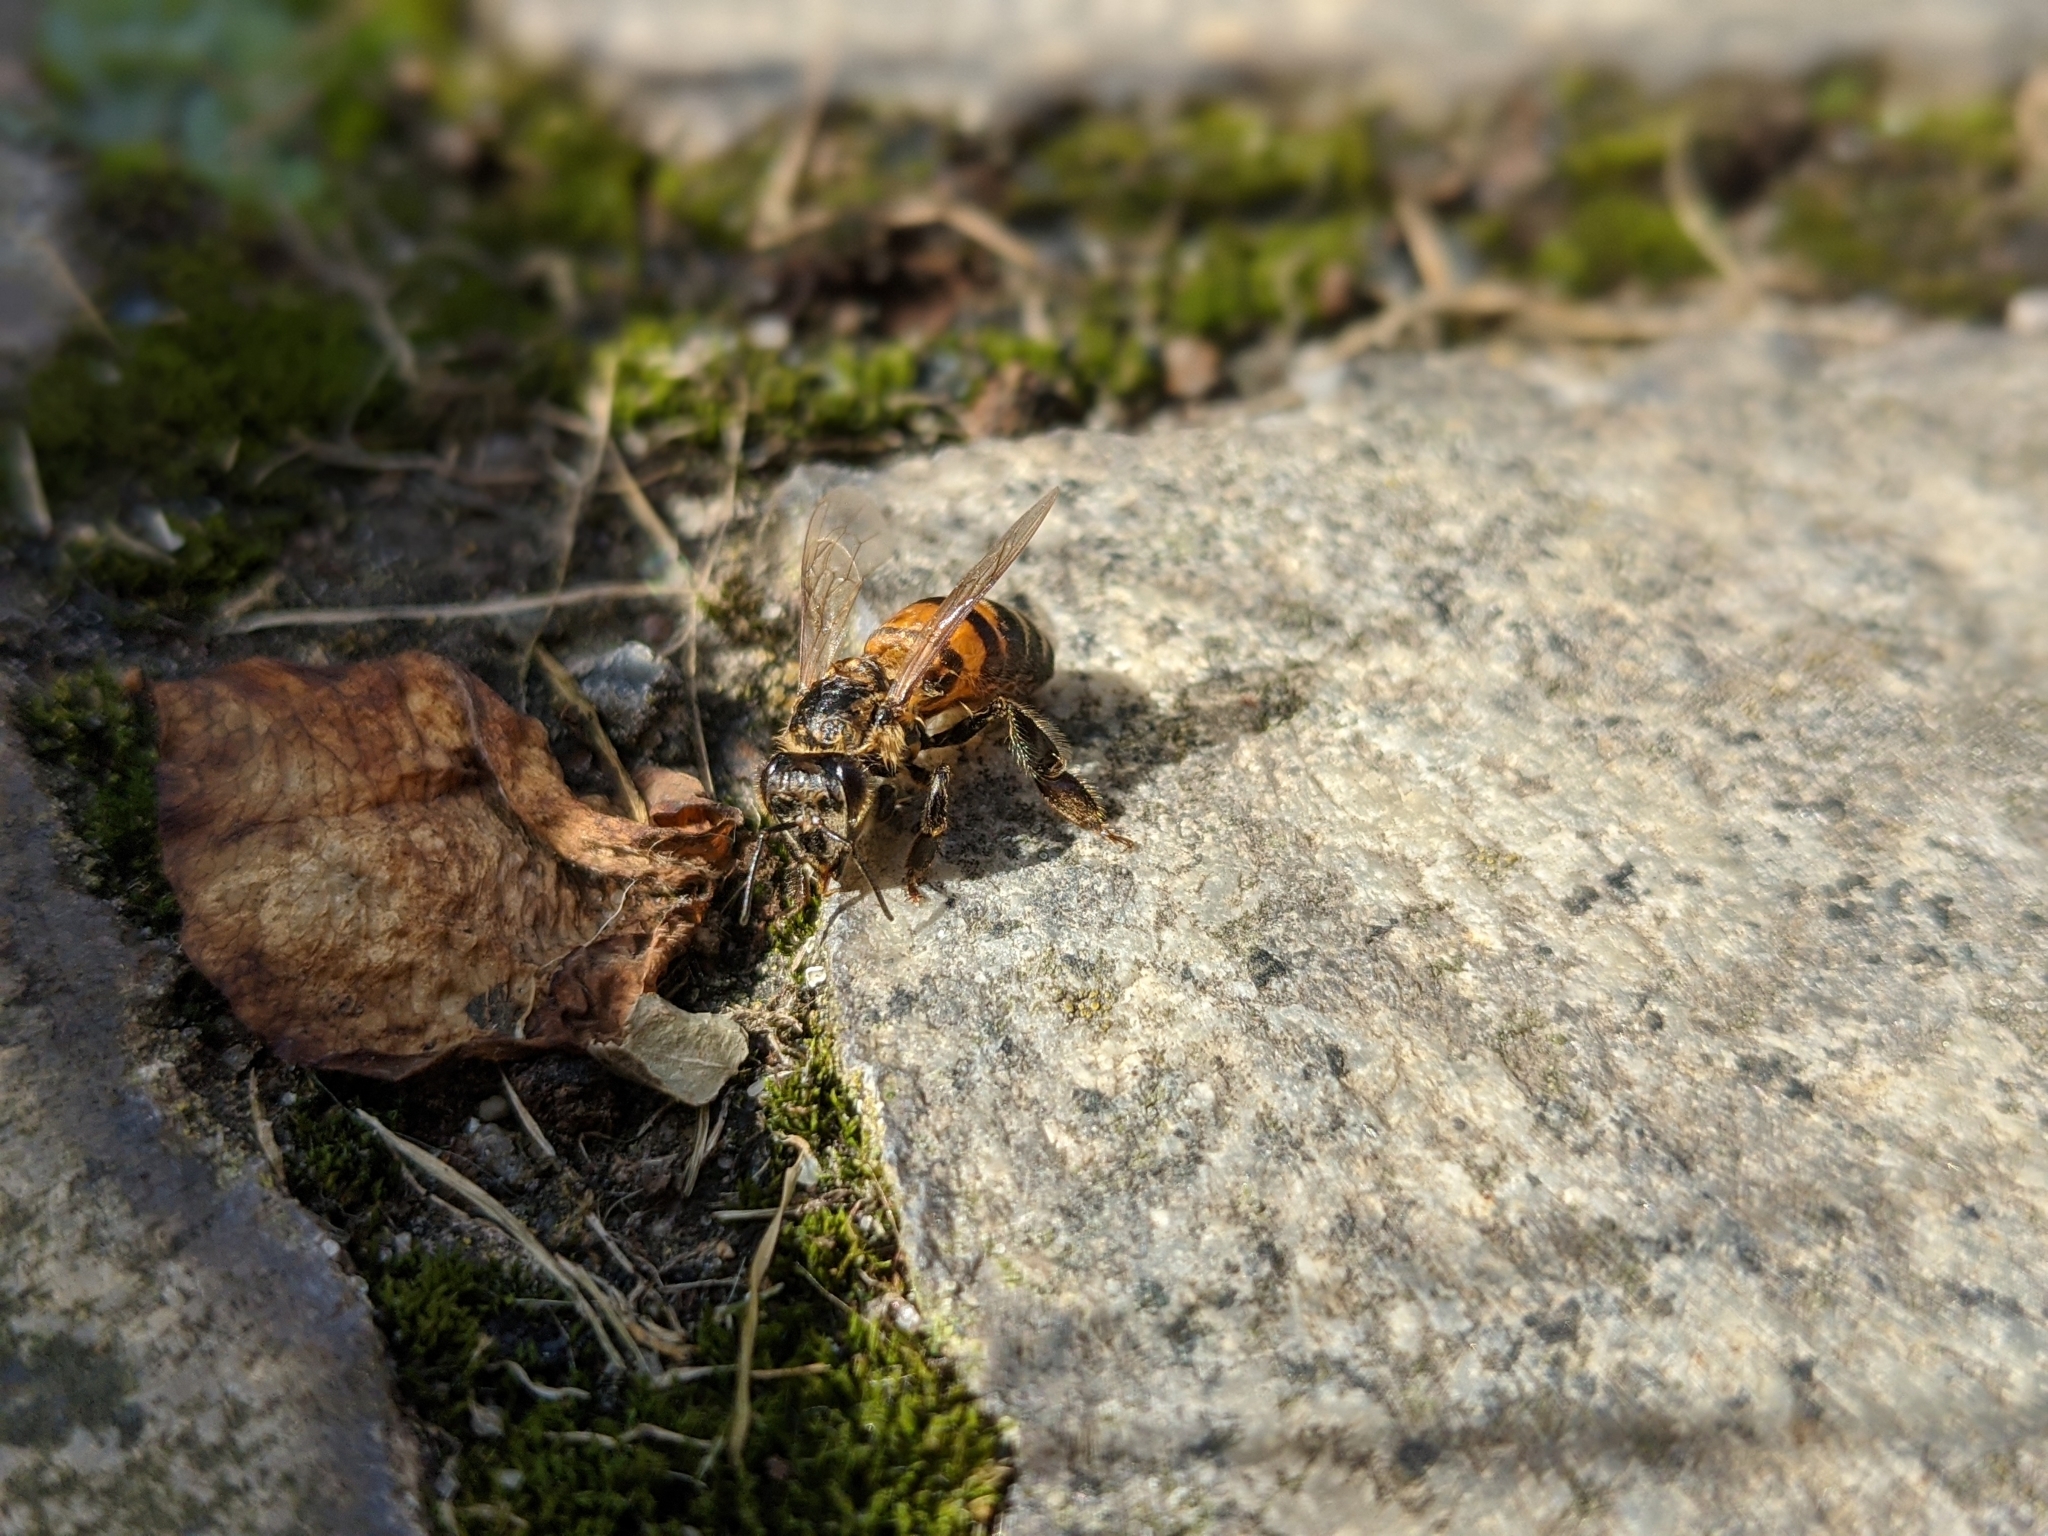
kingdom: Animalia
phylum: Arthropoda
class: Insecta
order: Hymenoptera
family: Apidae
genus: Apis
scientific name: Apis mellifera
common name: Honey bee
